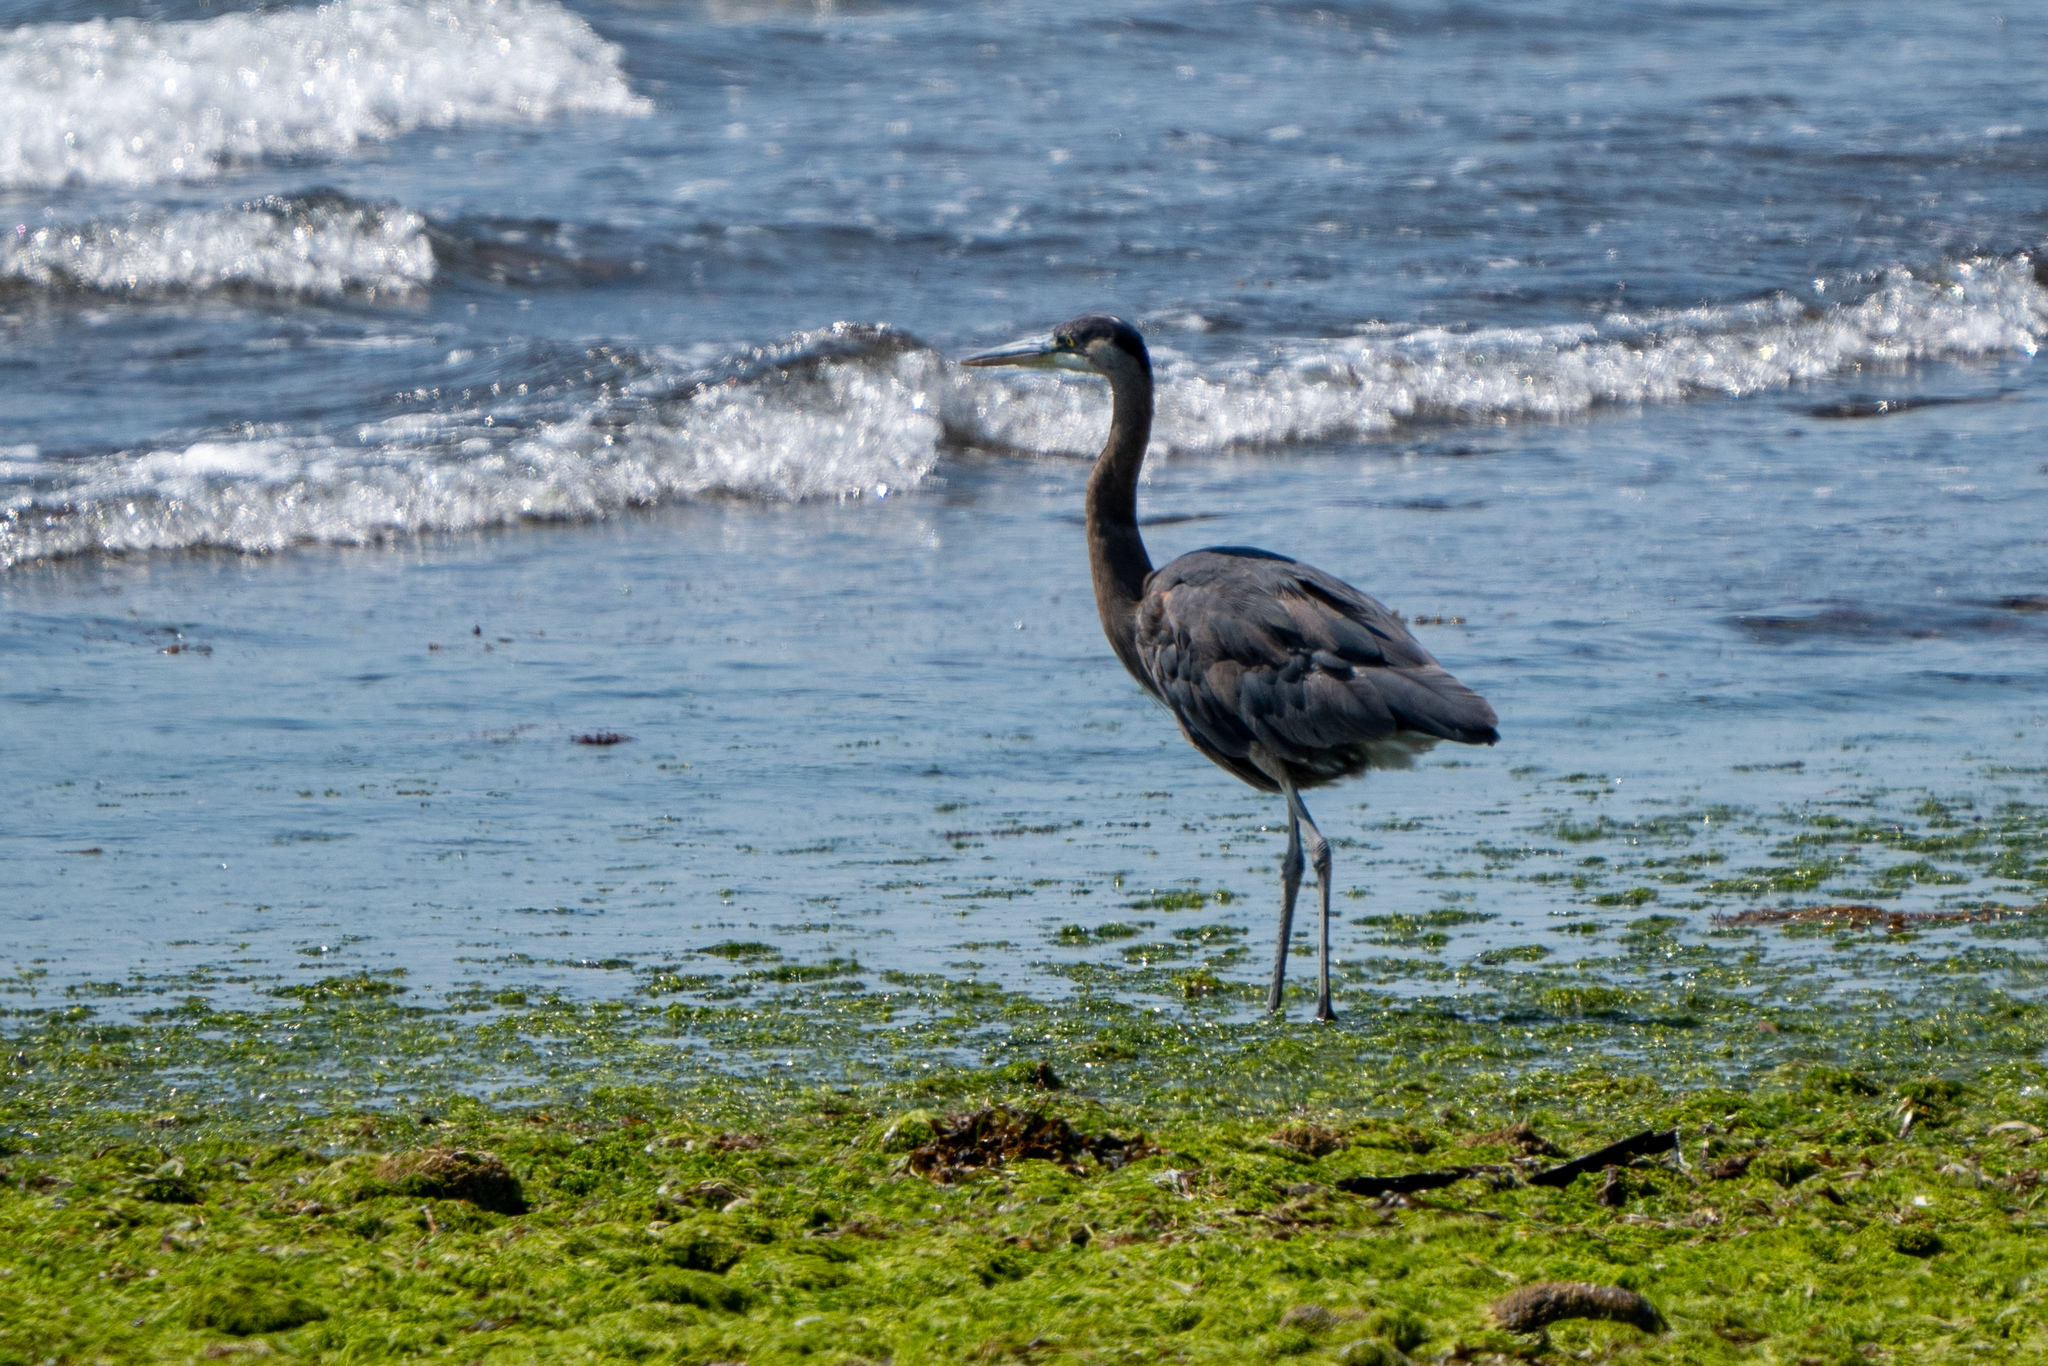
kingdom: Animalia
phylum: Chordata
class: Aves
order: Pelecaniformes
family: Ardeidae
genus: Ardea
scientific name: Ardea herodias
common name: Great blue heron
